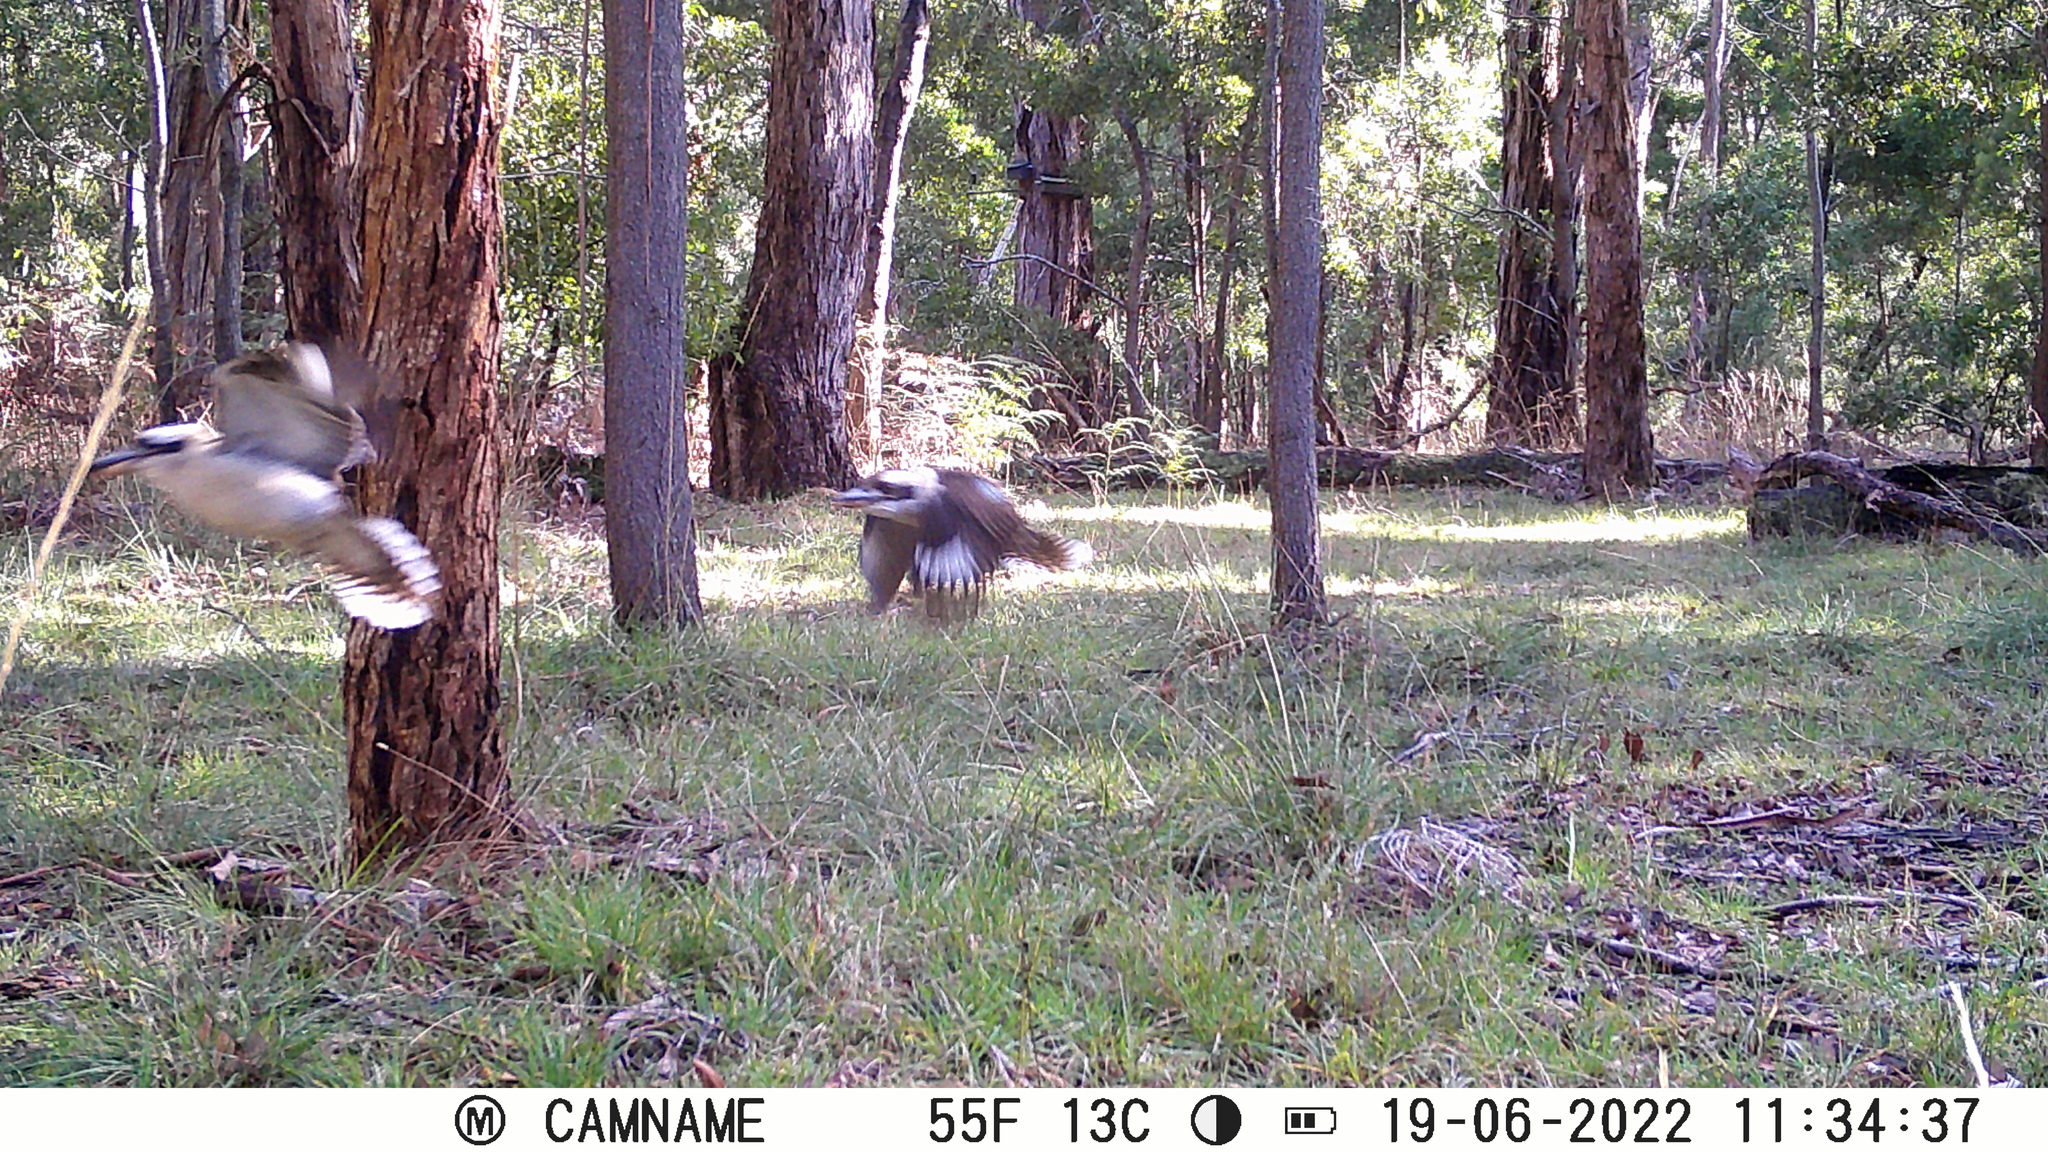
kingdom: Animalia
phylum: Chordata
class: Aves
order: Coraciiformes
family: Alcedinidae
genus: Dacelo
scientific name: Dacelo novaeguineae
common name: Laughing kookaburra
